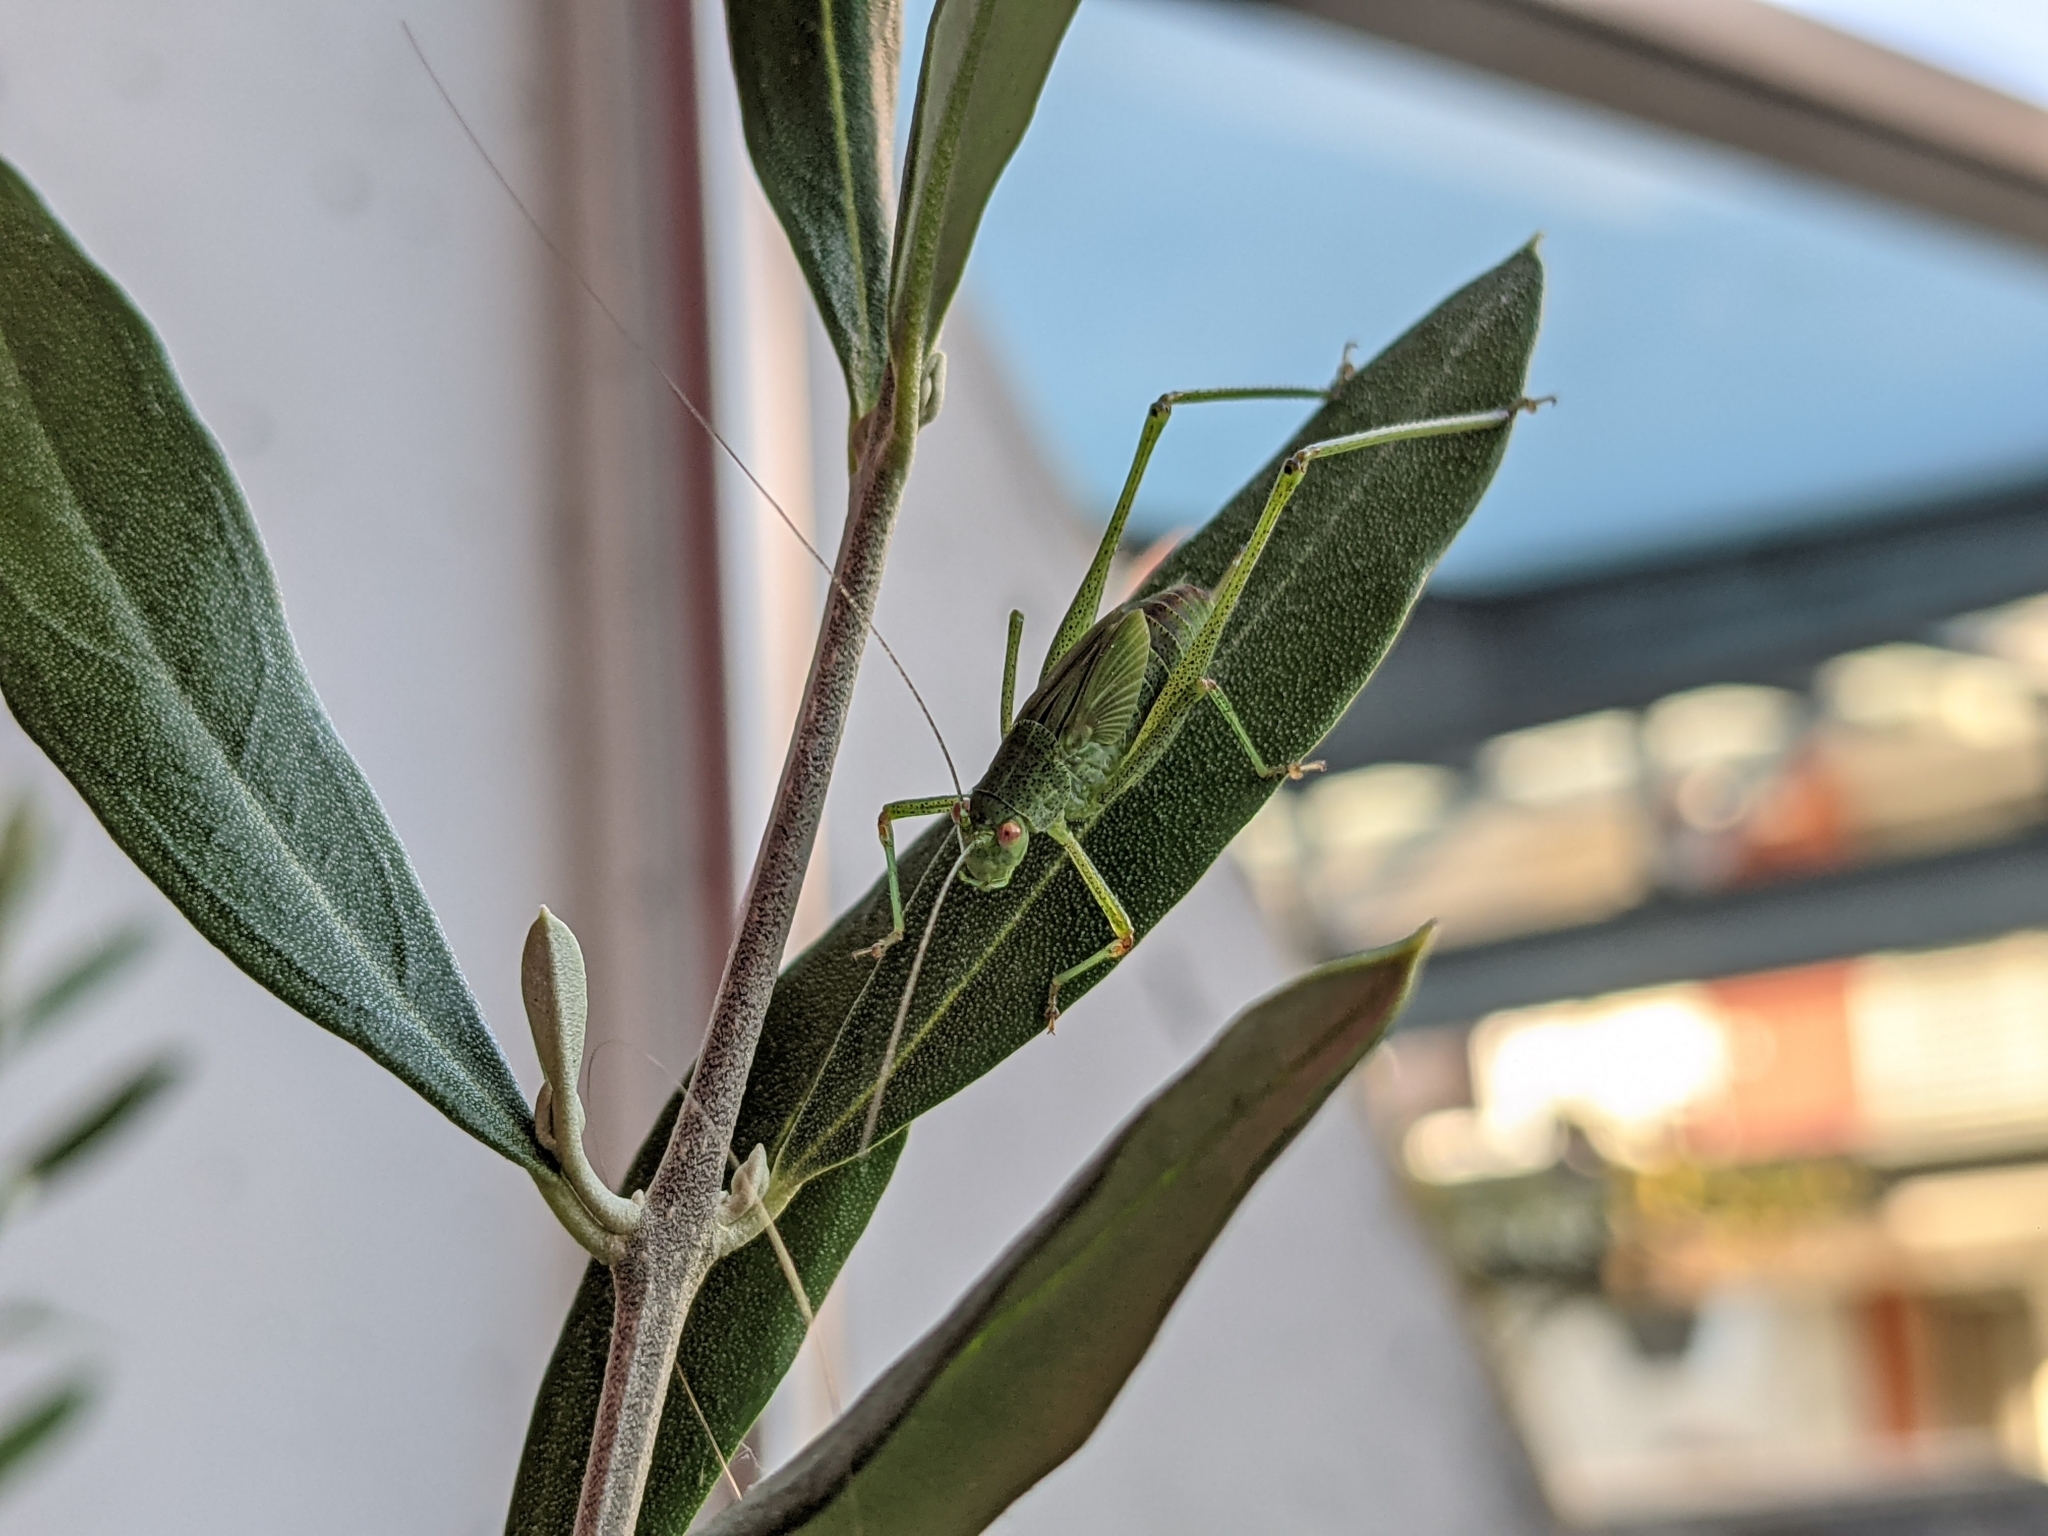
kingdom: Animalia
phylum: Arthropoda
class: Insecta
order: Orthoptera
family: Tettigoniidae
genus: Phaneroptera
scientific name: Phaneroptera nana
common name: Southern sickle bush-cricket
